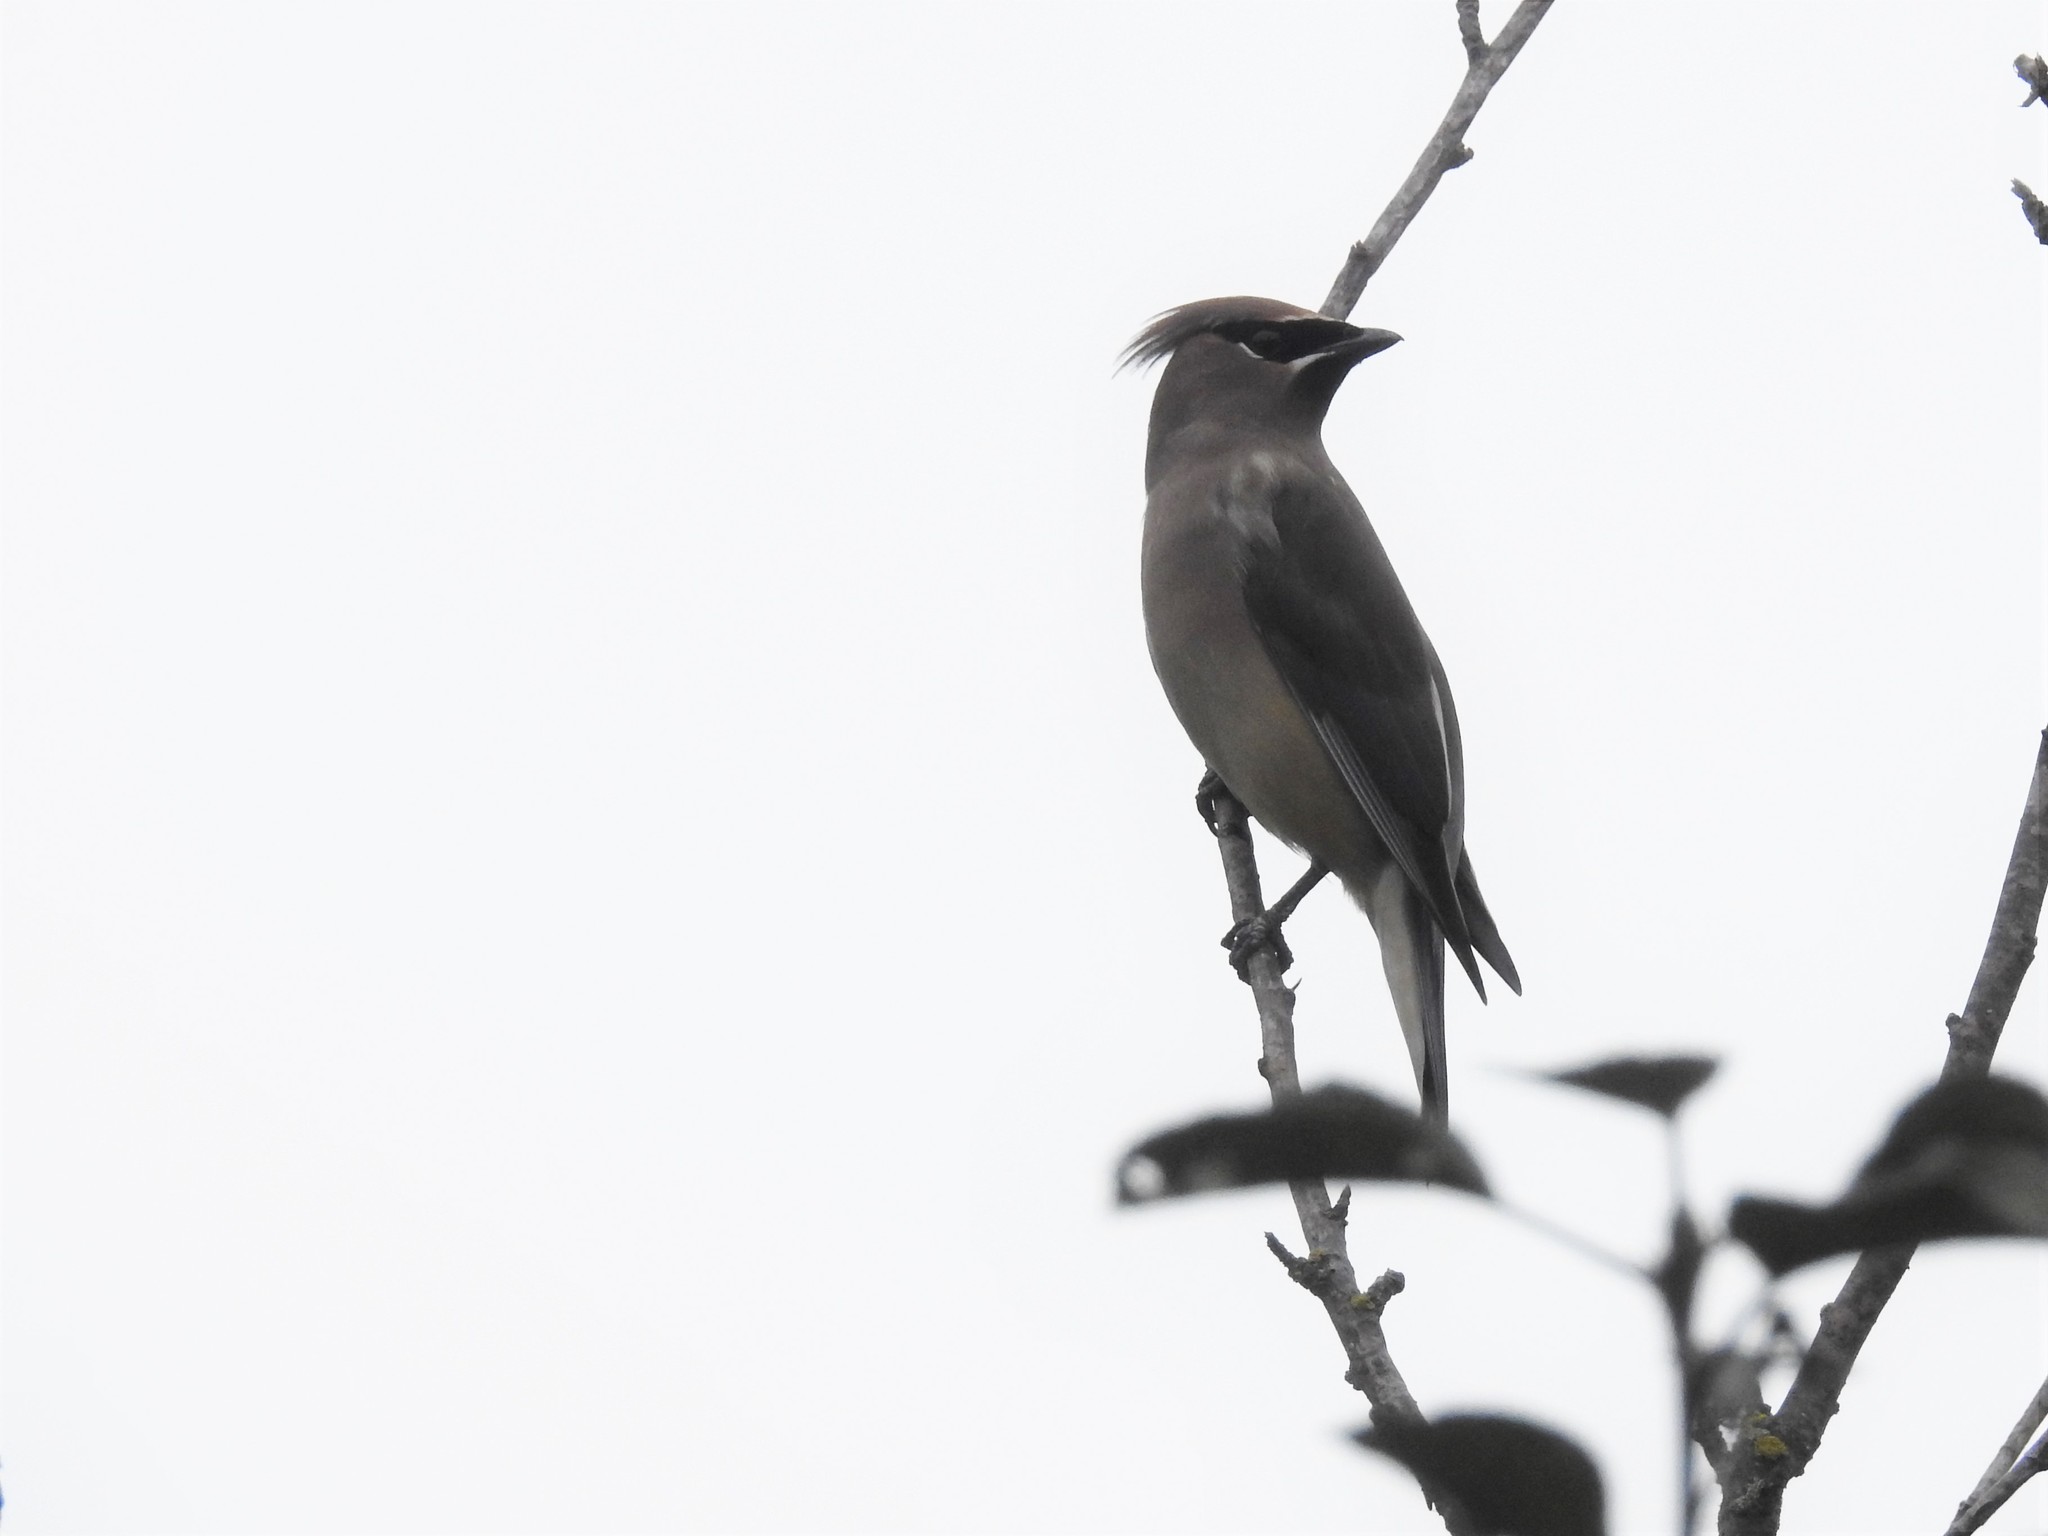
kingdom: Animalia
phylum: Chordata
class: Aves
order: Passeriformes
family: Bombycillidae
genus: Bombycilla
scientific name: Bombycilla cedrorum
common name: Cedar waxwing
